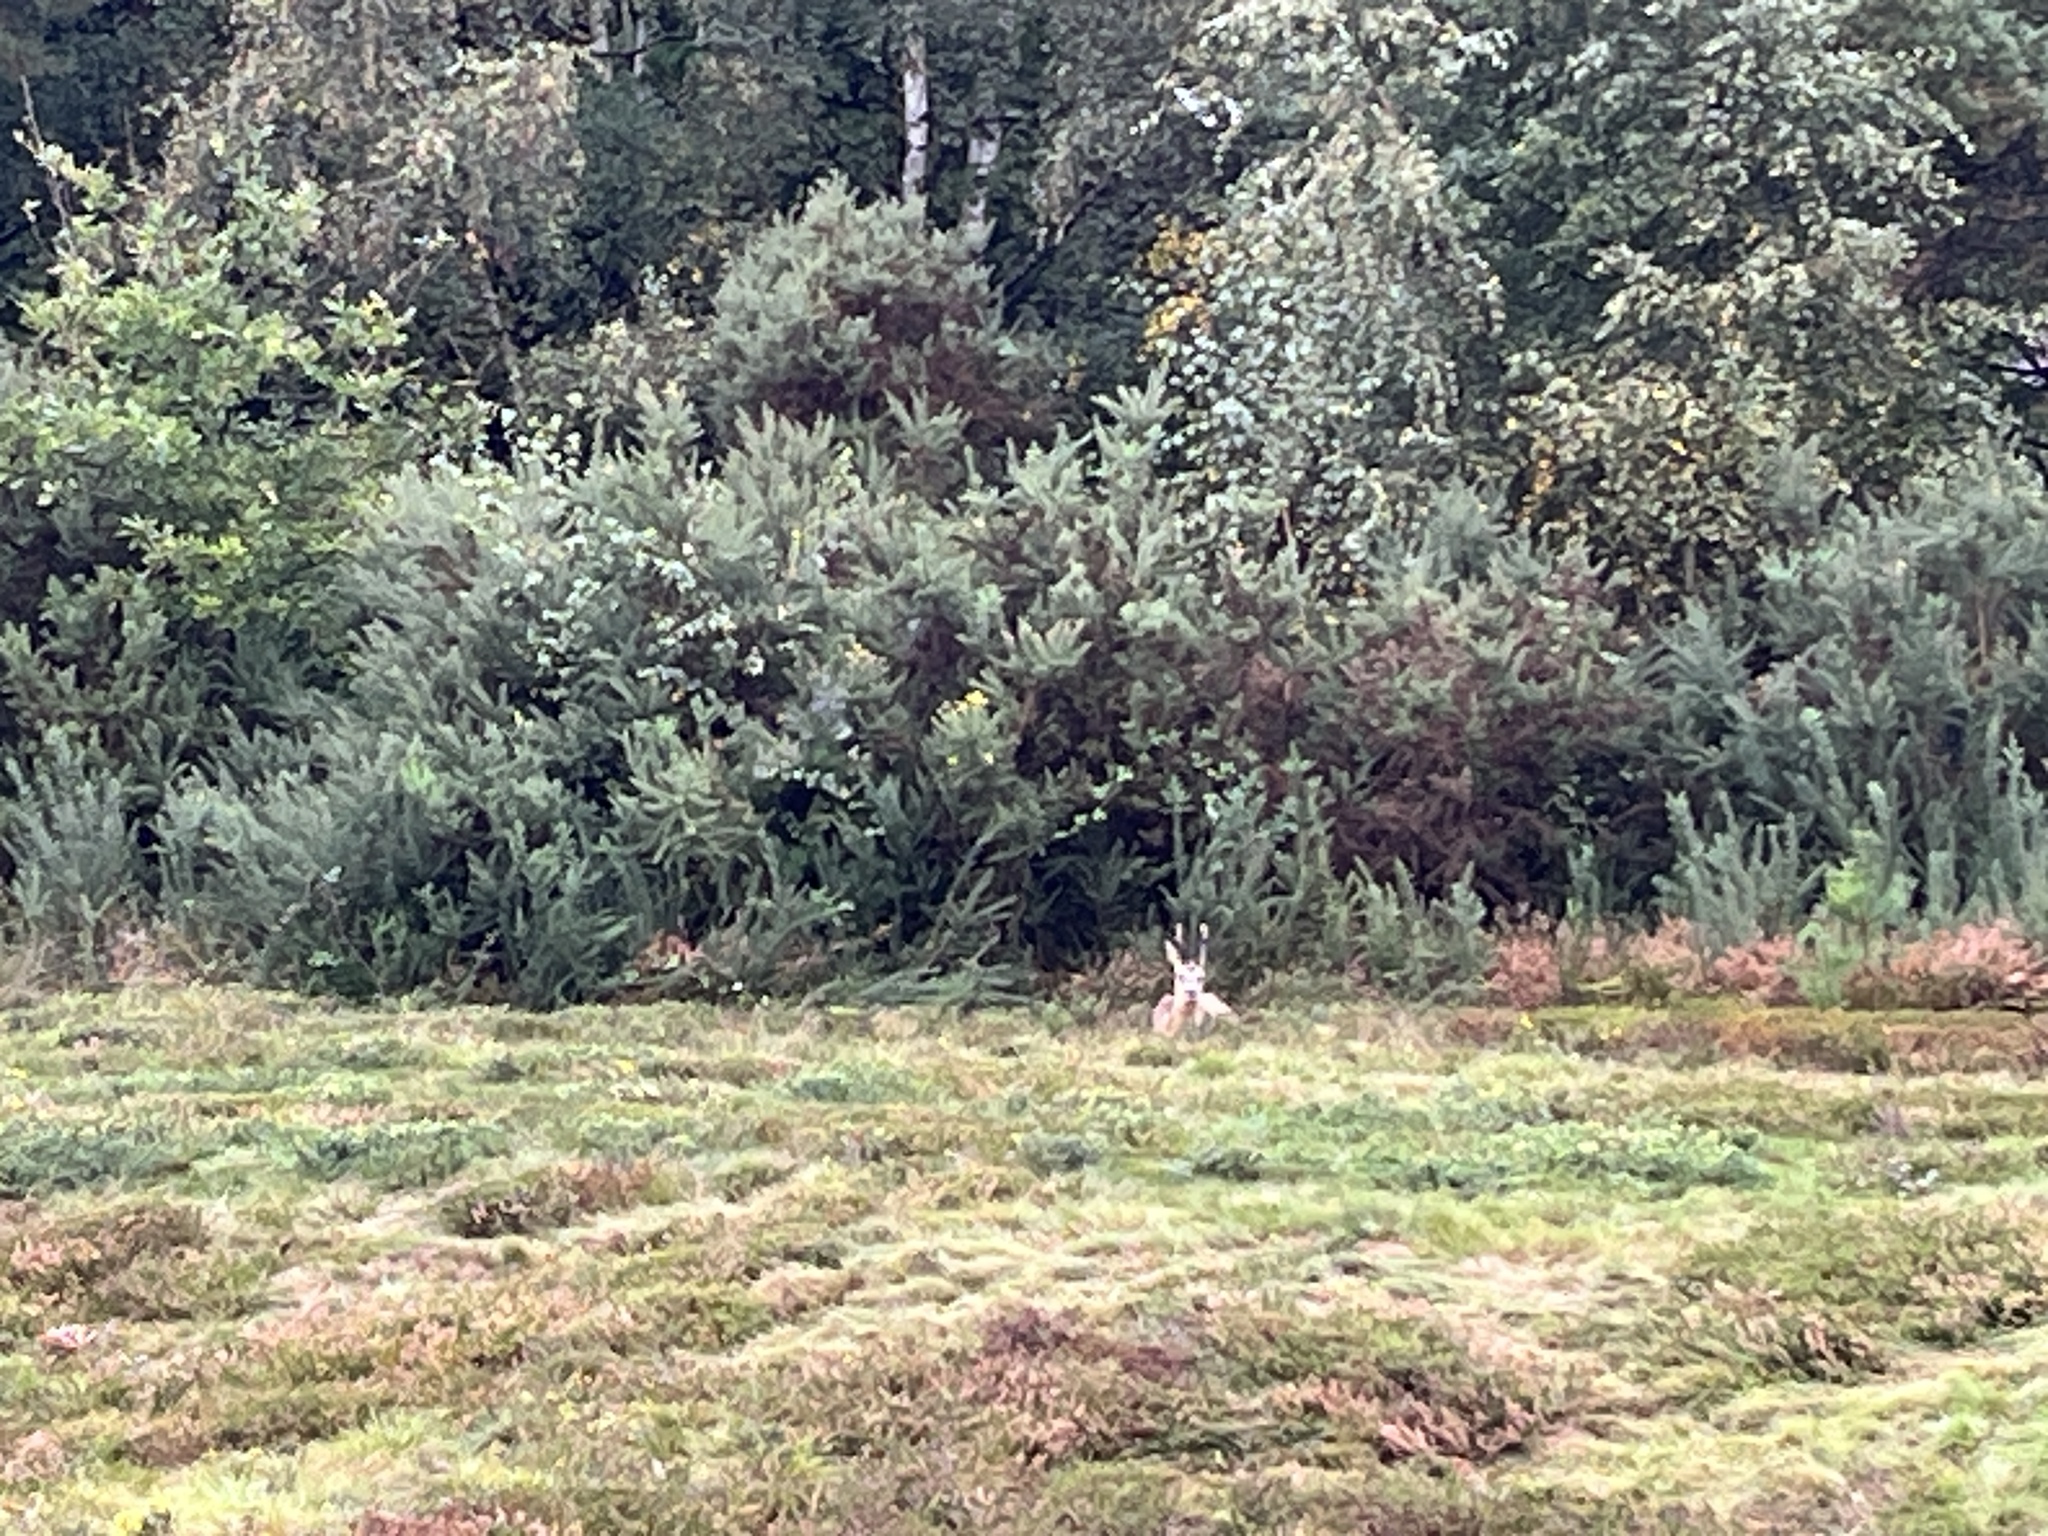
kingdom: Animalia
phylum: Chordata
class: Mammalia
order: Artiodactyla
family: Cervidae
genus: Capreolus
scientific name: Capreolus capreolus
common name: Western roe deer
